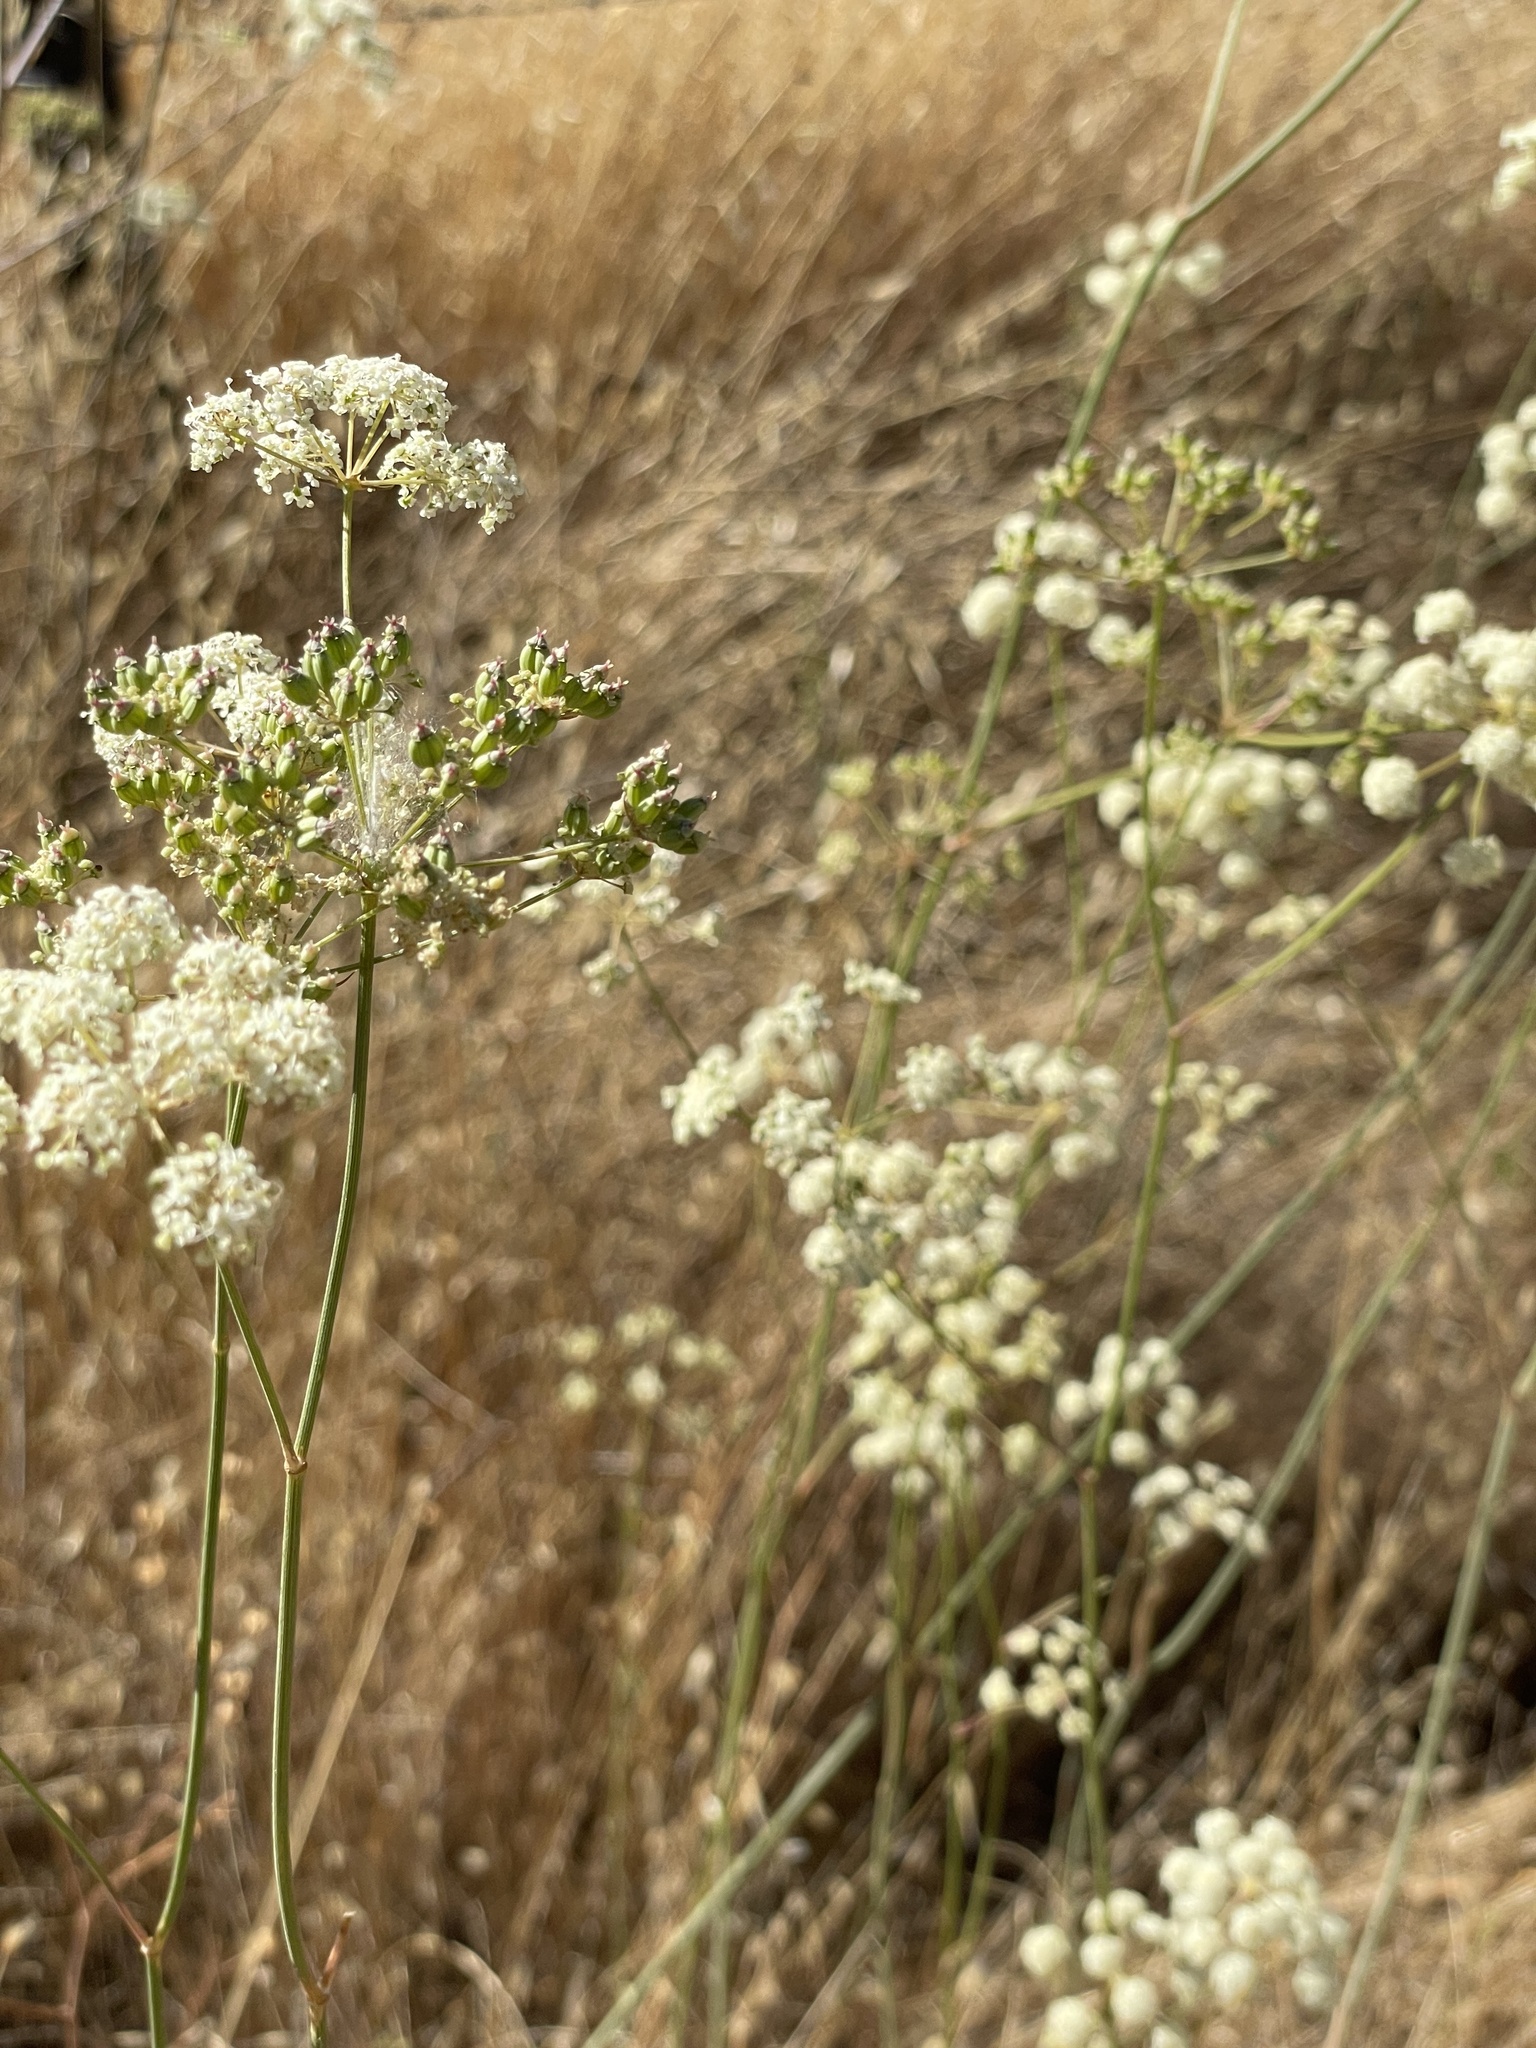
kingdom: Plantae
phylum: Tracheophyta
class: Magnoliopsida
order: Apiales
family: Apiaceae
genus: Perideridia
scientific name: Perideridia kelloggii
